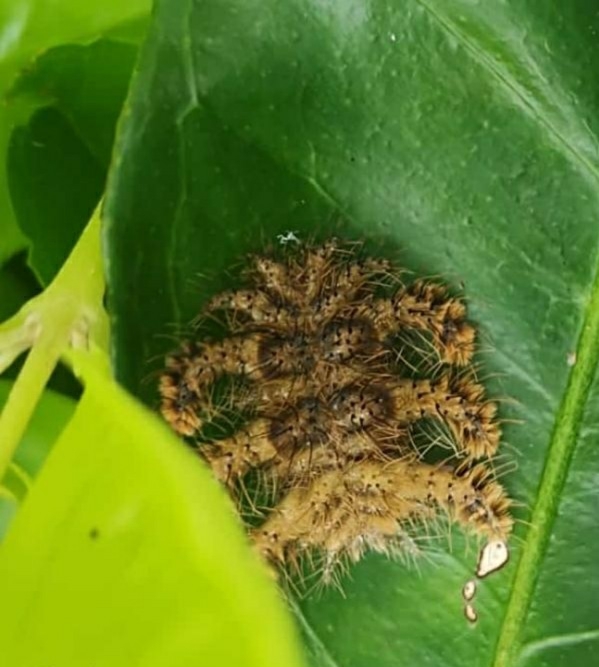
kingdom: Animalia
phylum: Arthropoda
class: Insecta
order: Lepidoptera
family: Limacodidae
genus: Phobetron
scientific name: Phobetron hipparchia
